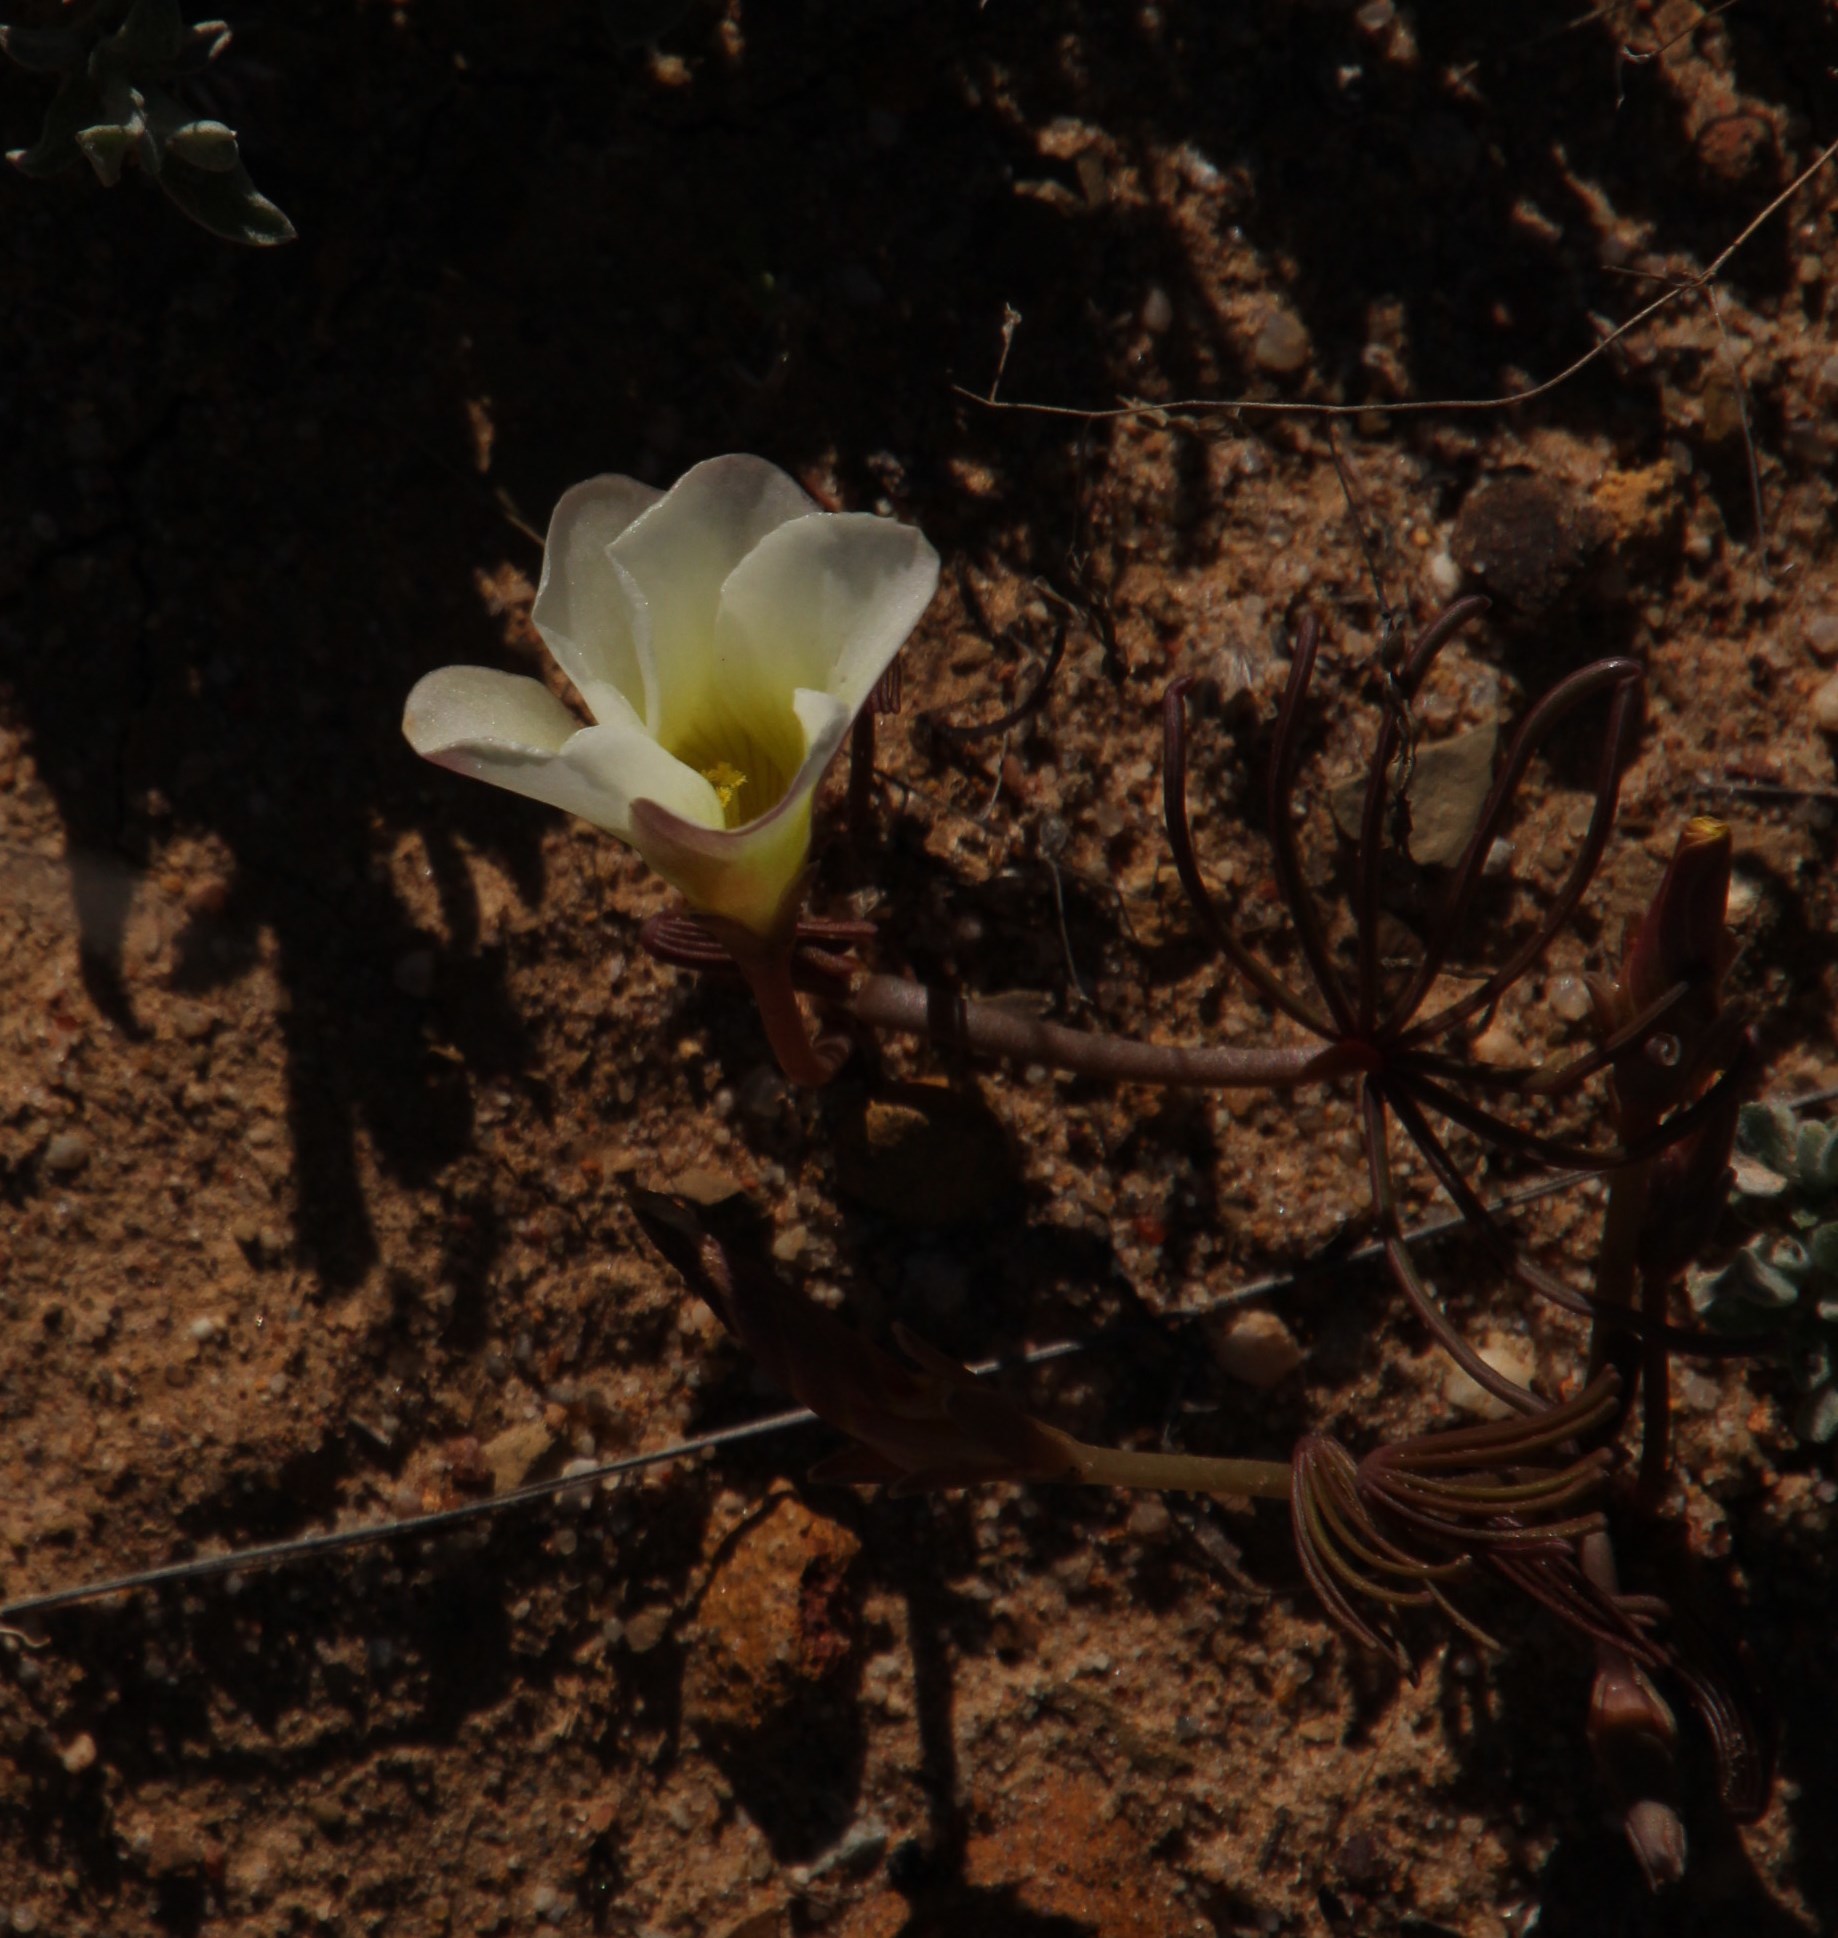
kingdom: Plantae
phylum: Tracheophyta
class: Magnoliopsida
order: Oxalidales
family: Oxalidaceae
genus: Oxalis
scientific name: Oxalis flava
